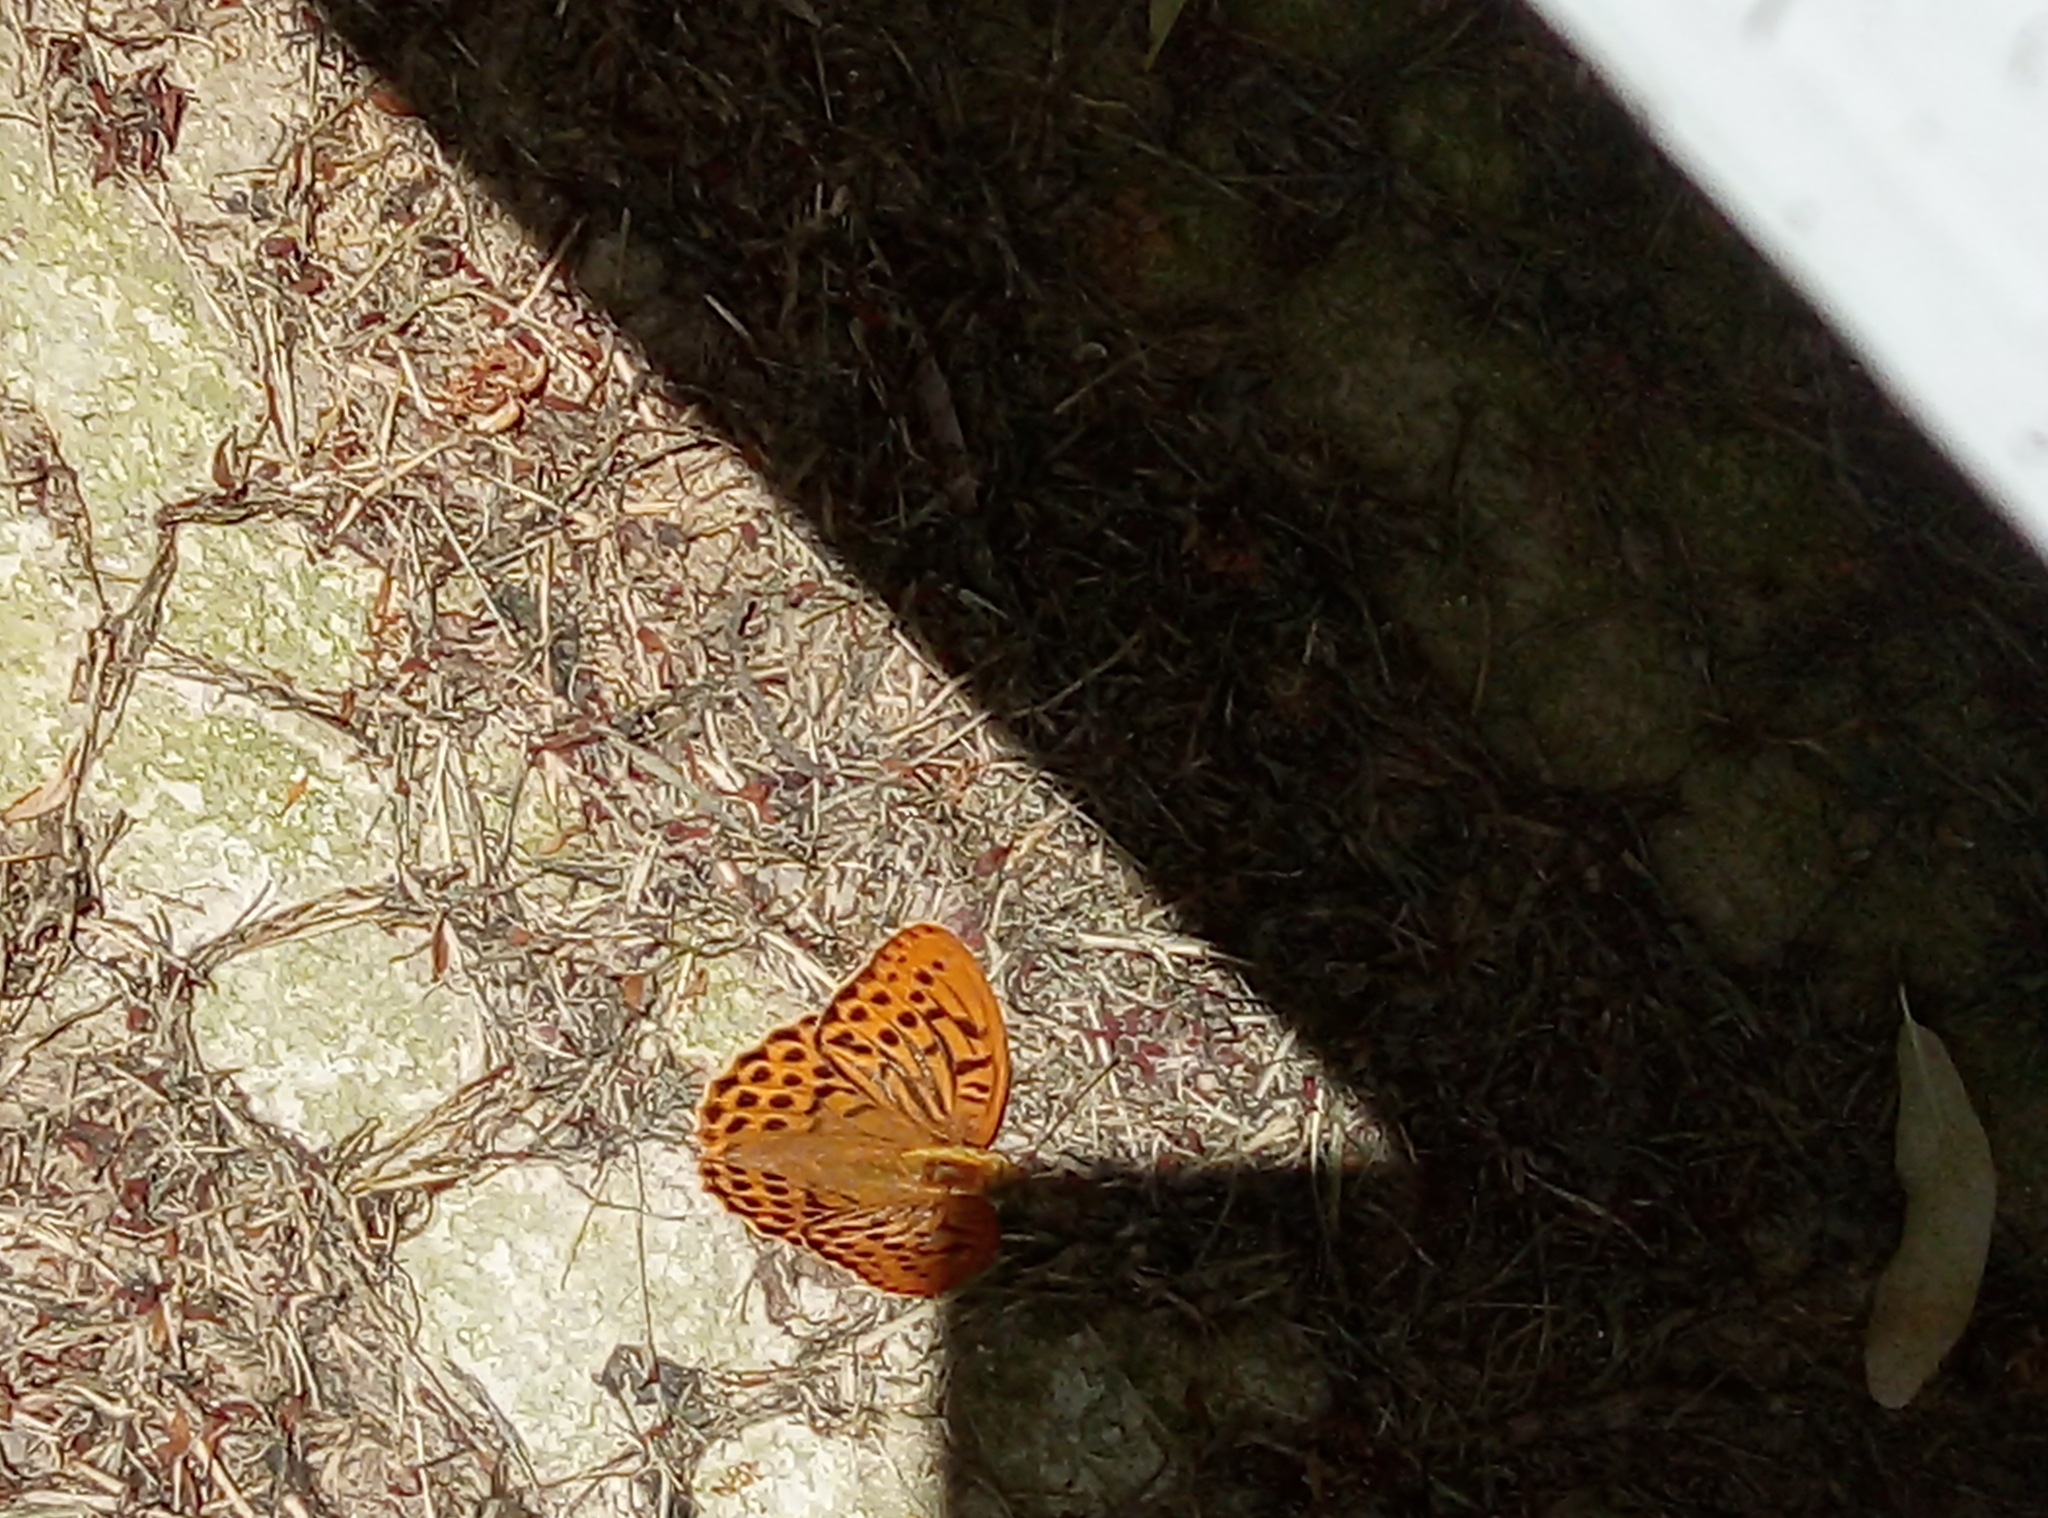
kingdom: Animalia
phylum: Arthropoda
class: Insecta
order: Lepidoptera
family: Nymphalidae
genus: Argynnis
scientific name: Argynnis paphia
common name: Silver-washed fritillary
